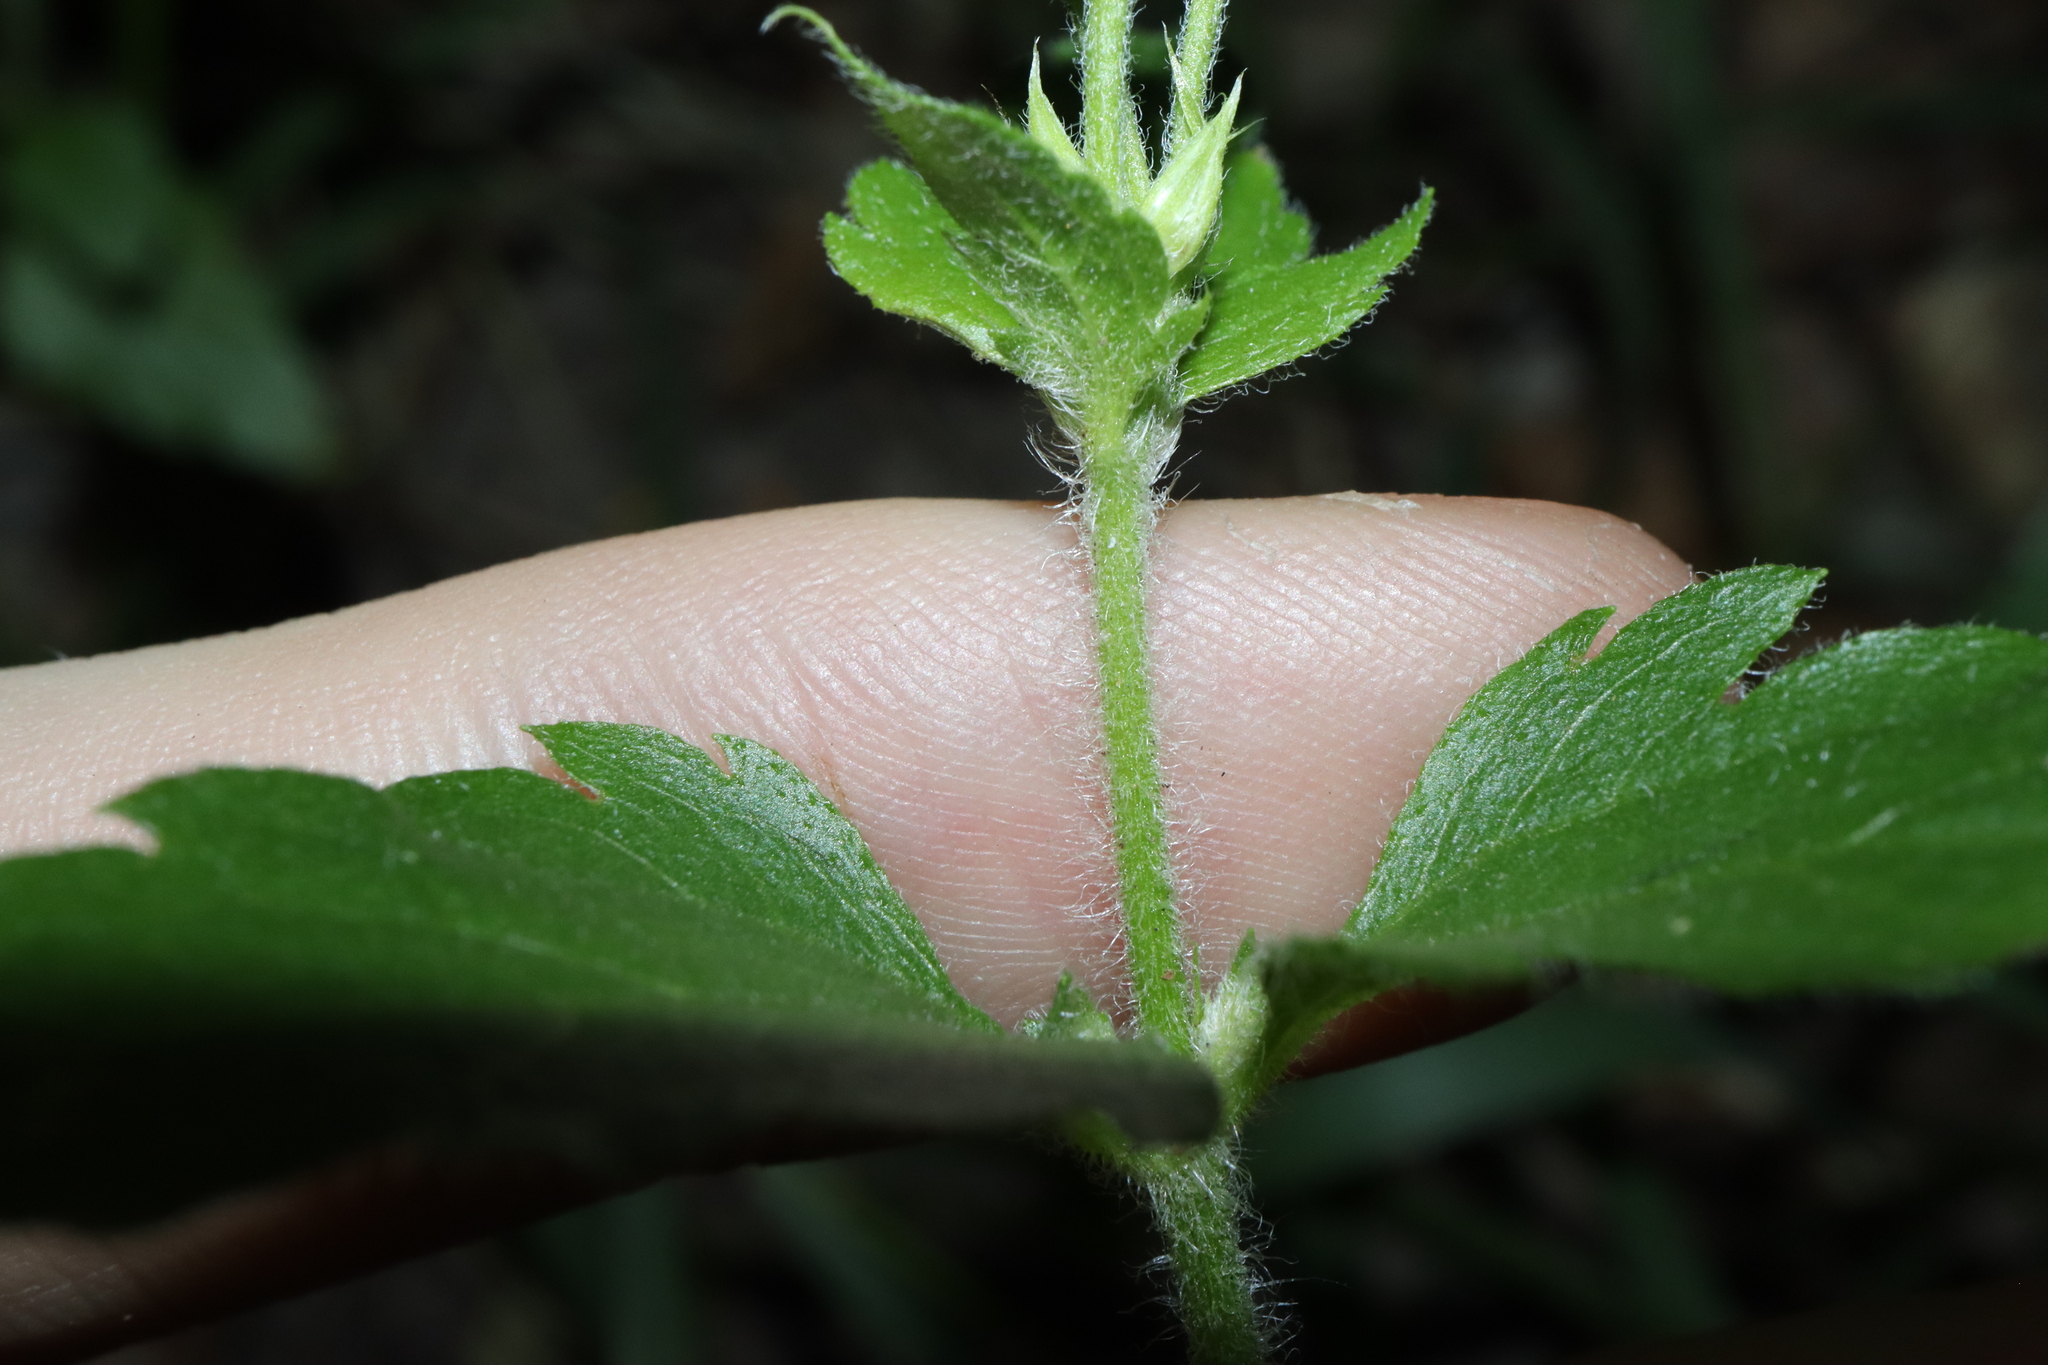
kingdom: Plantae
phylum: Tracheophyta
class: Magnoliopsida
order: Asterales
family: Asteraceae
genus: Praxelis
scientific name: Praxelis clematidea
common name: Praxelis
